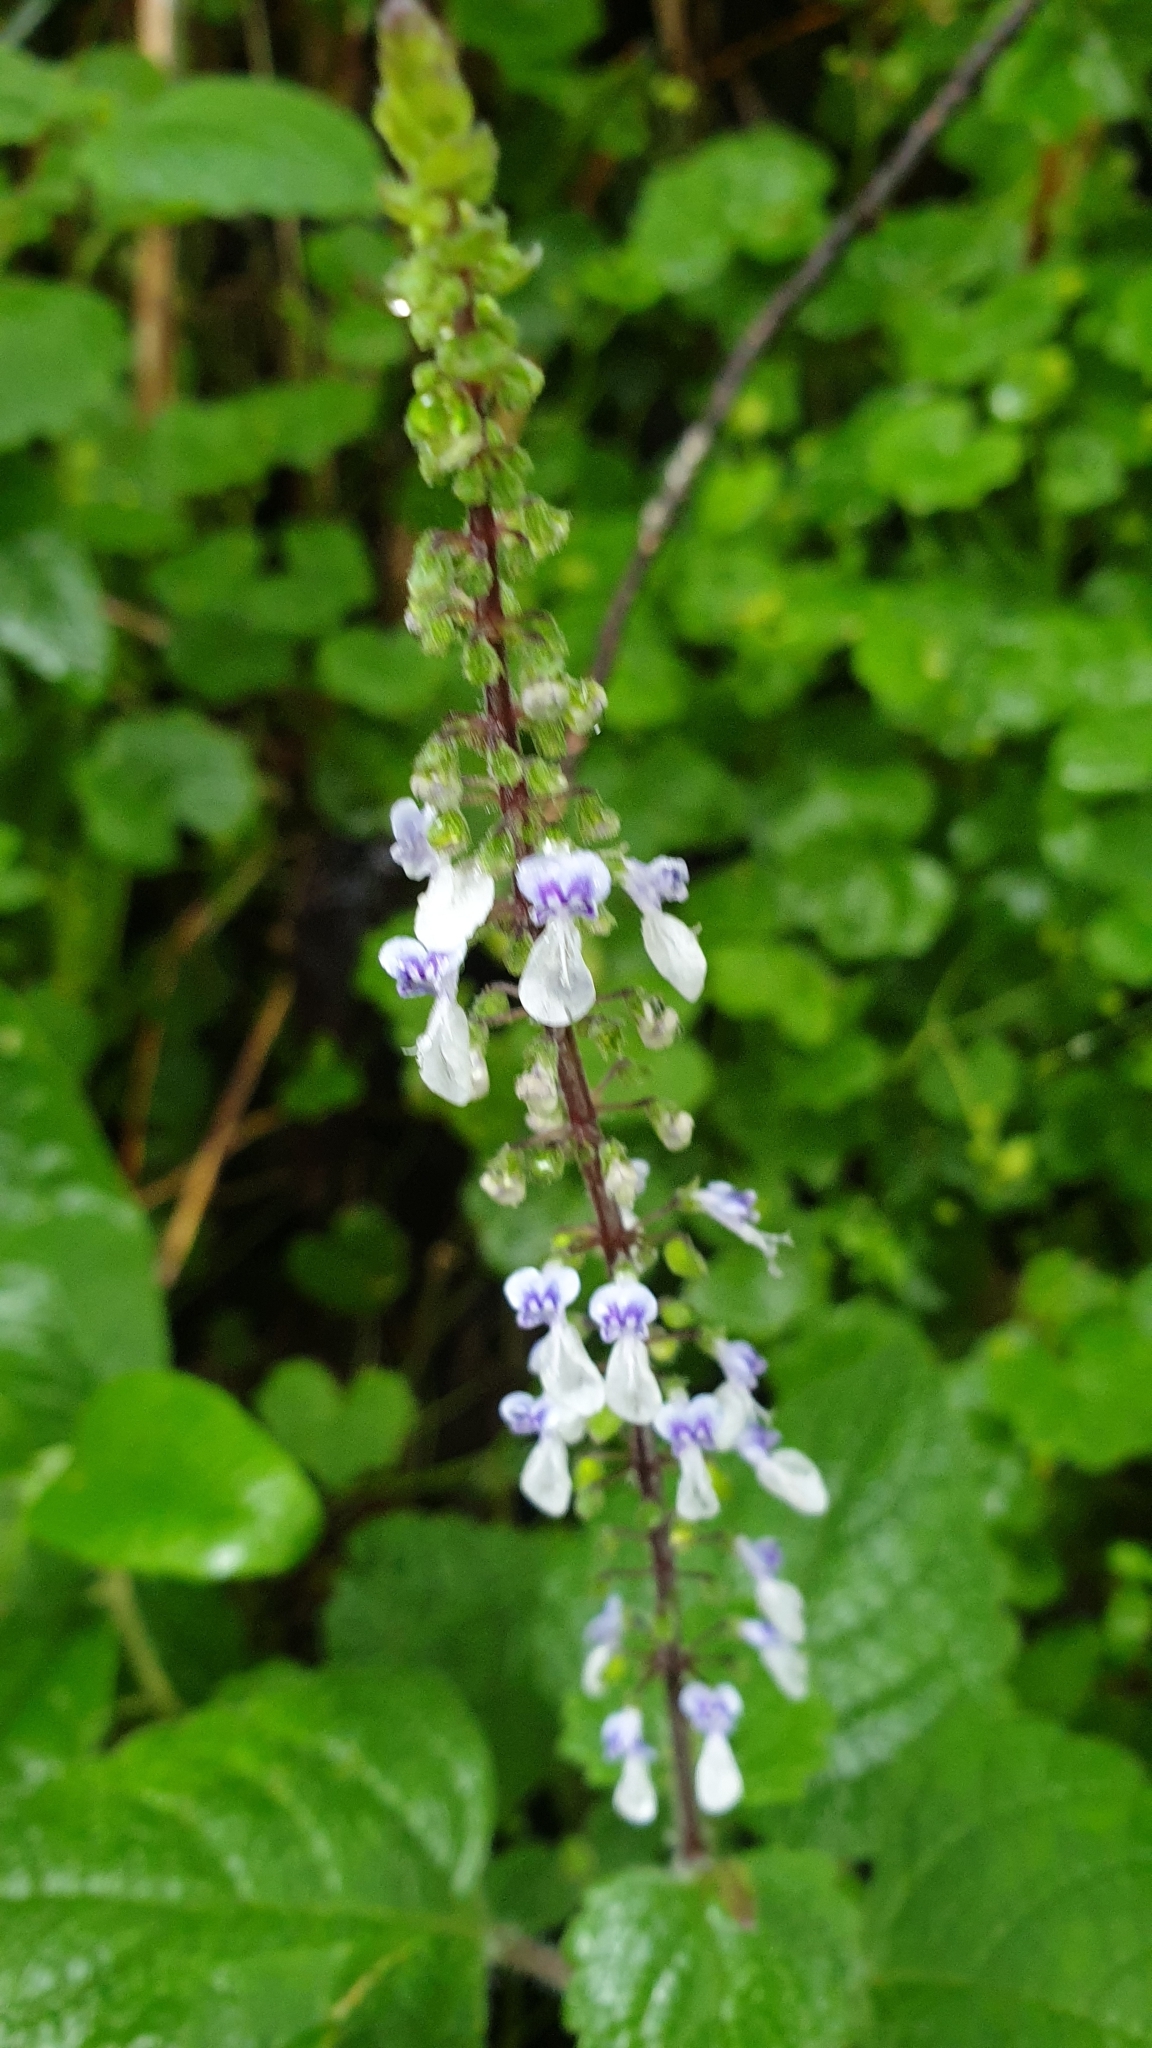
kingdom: Plantae
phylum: Tracheophyta
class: Magnoliopsida
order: Lamiales
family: Lamiaceae
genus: Coleus
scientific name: Coleus australis
